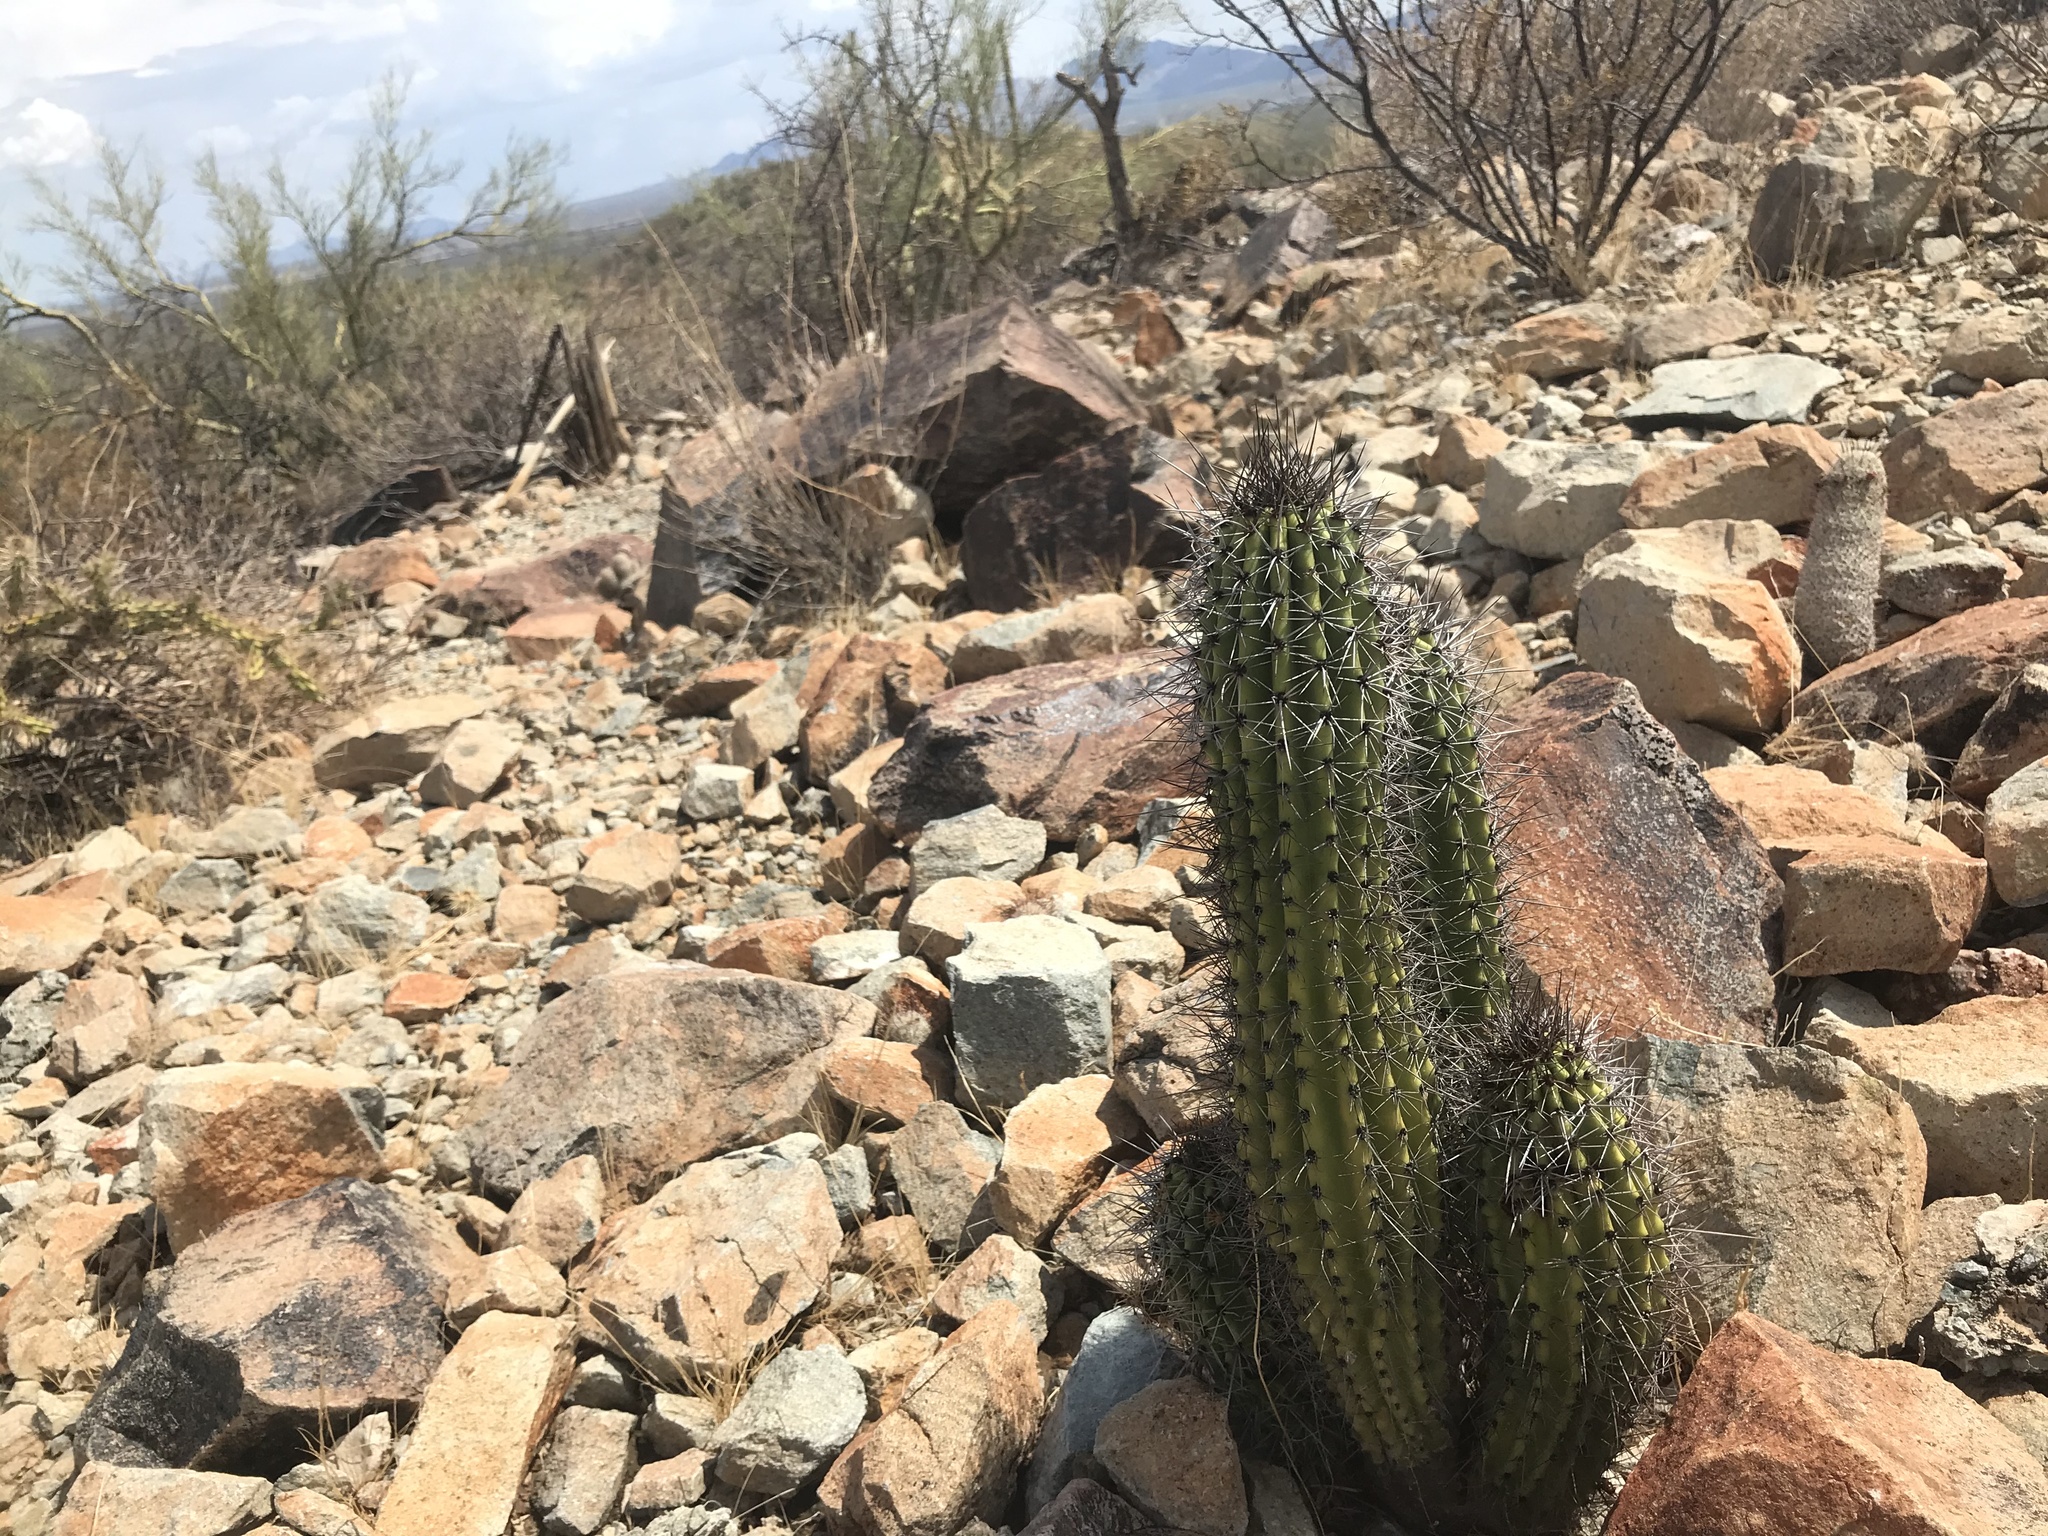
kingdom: Plantae
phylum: Tracheophyta
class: Magnoliopsida
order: Caryophyllales
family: Cactaceae
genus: Stenocereus
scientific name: Stenocereus thurberi
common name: Organ pipe cactus
